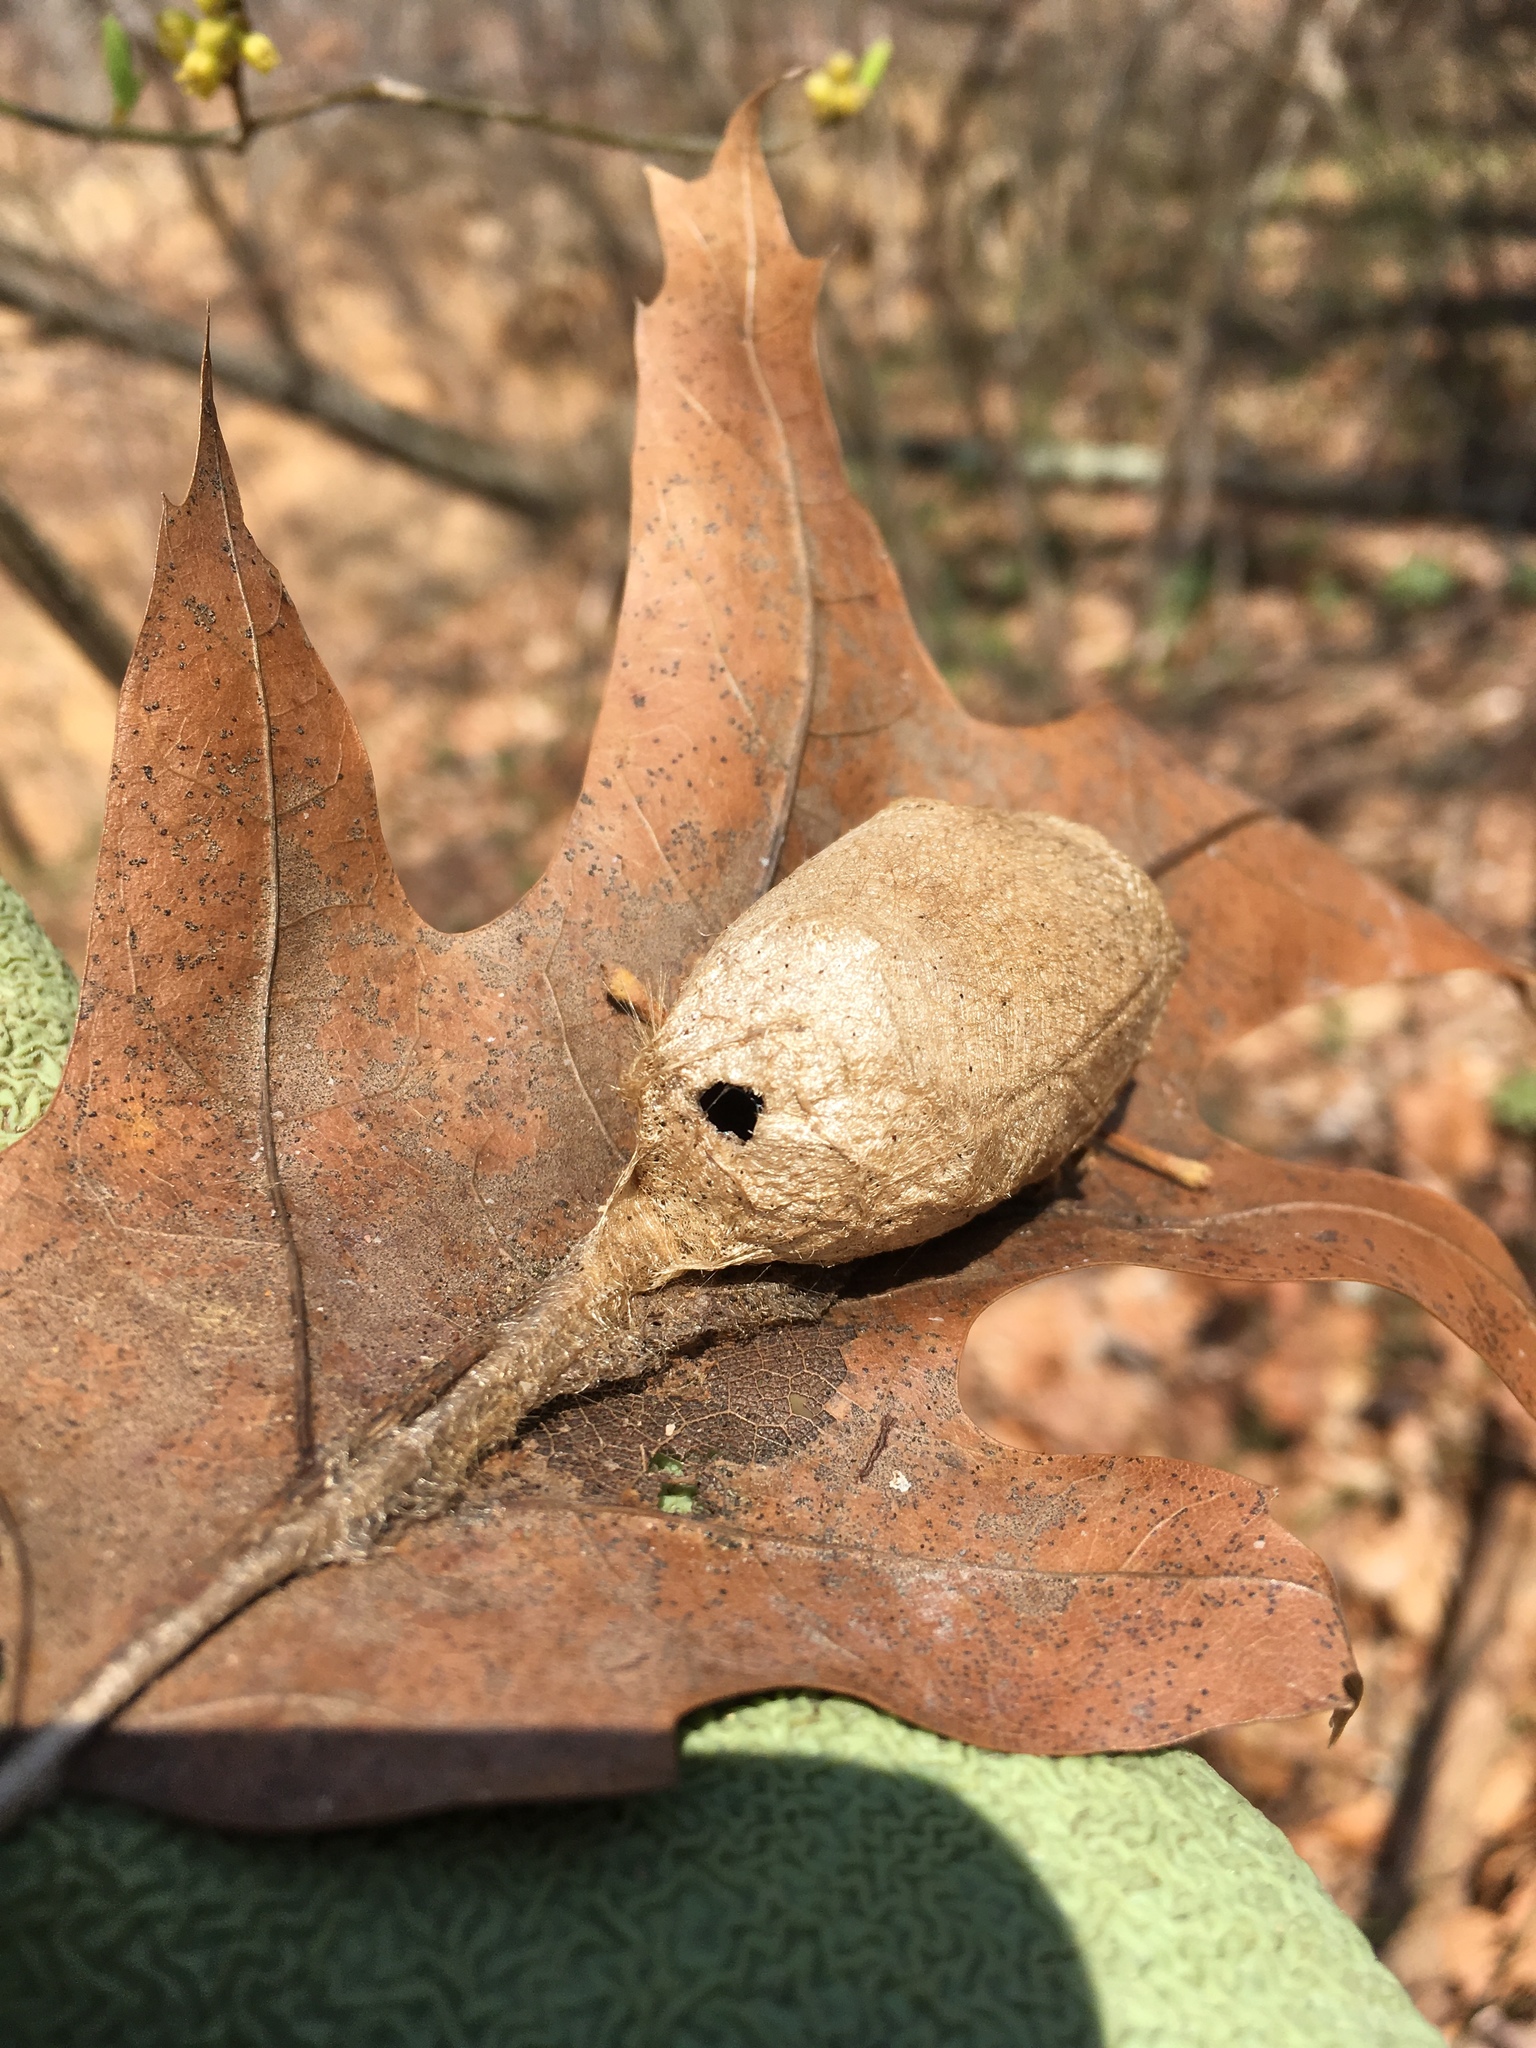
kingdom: Animalia
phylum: Arthropoda
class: Insecta
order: Lepidoptera
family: Saturniidae
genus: Actias
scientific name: Actias luna
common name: Luna moth
